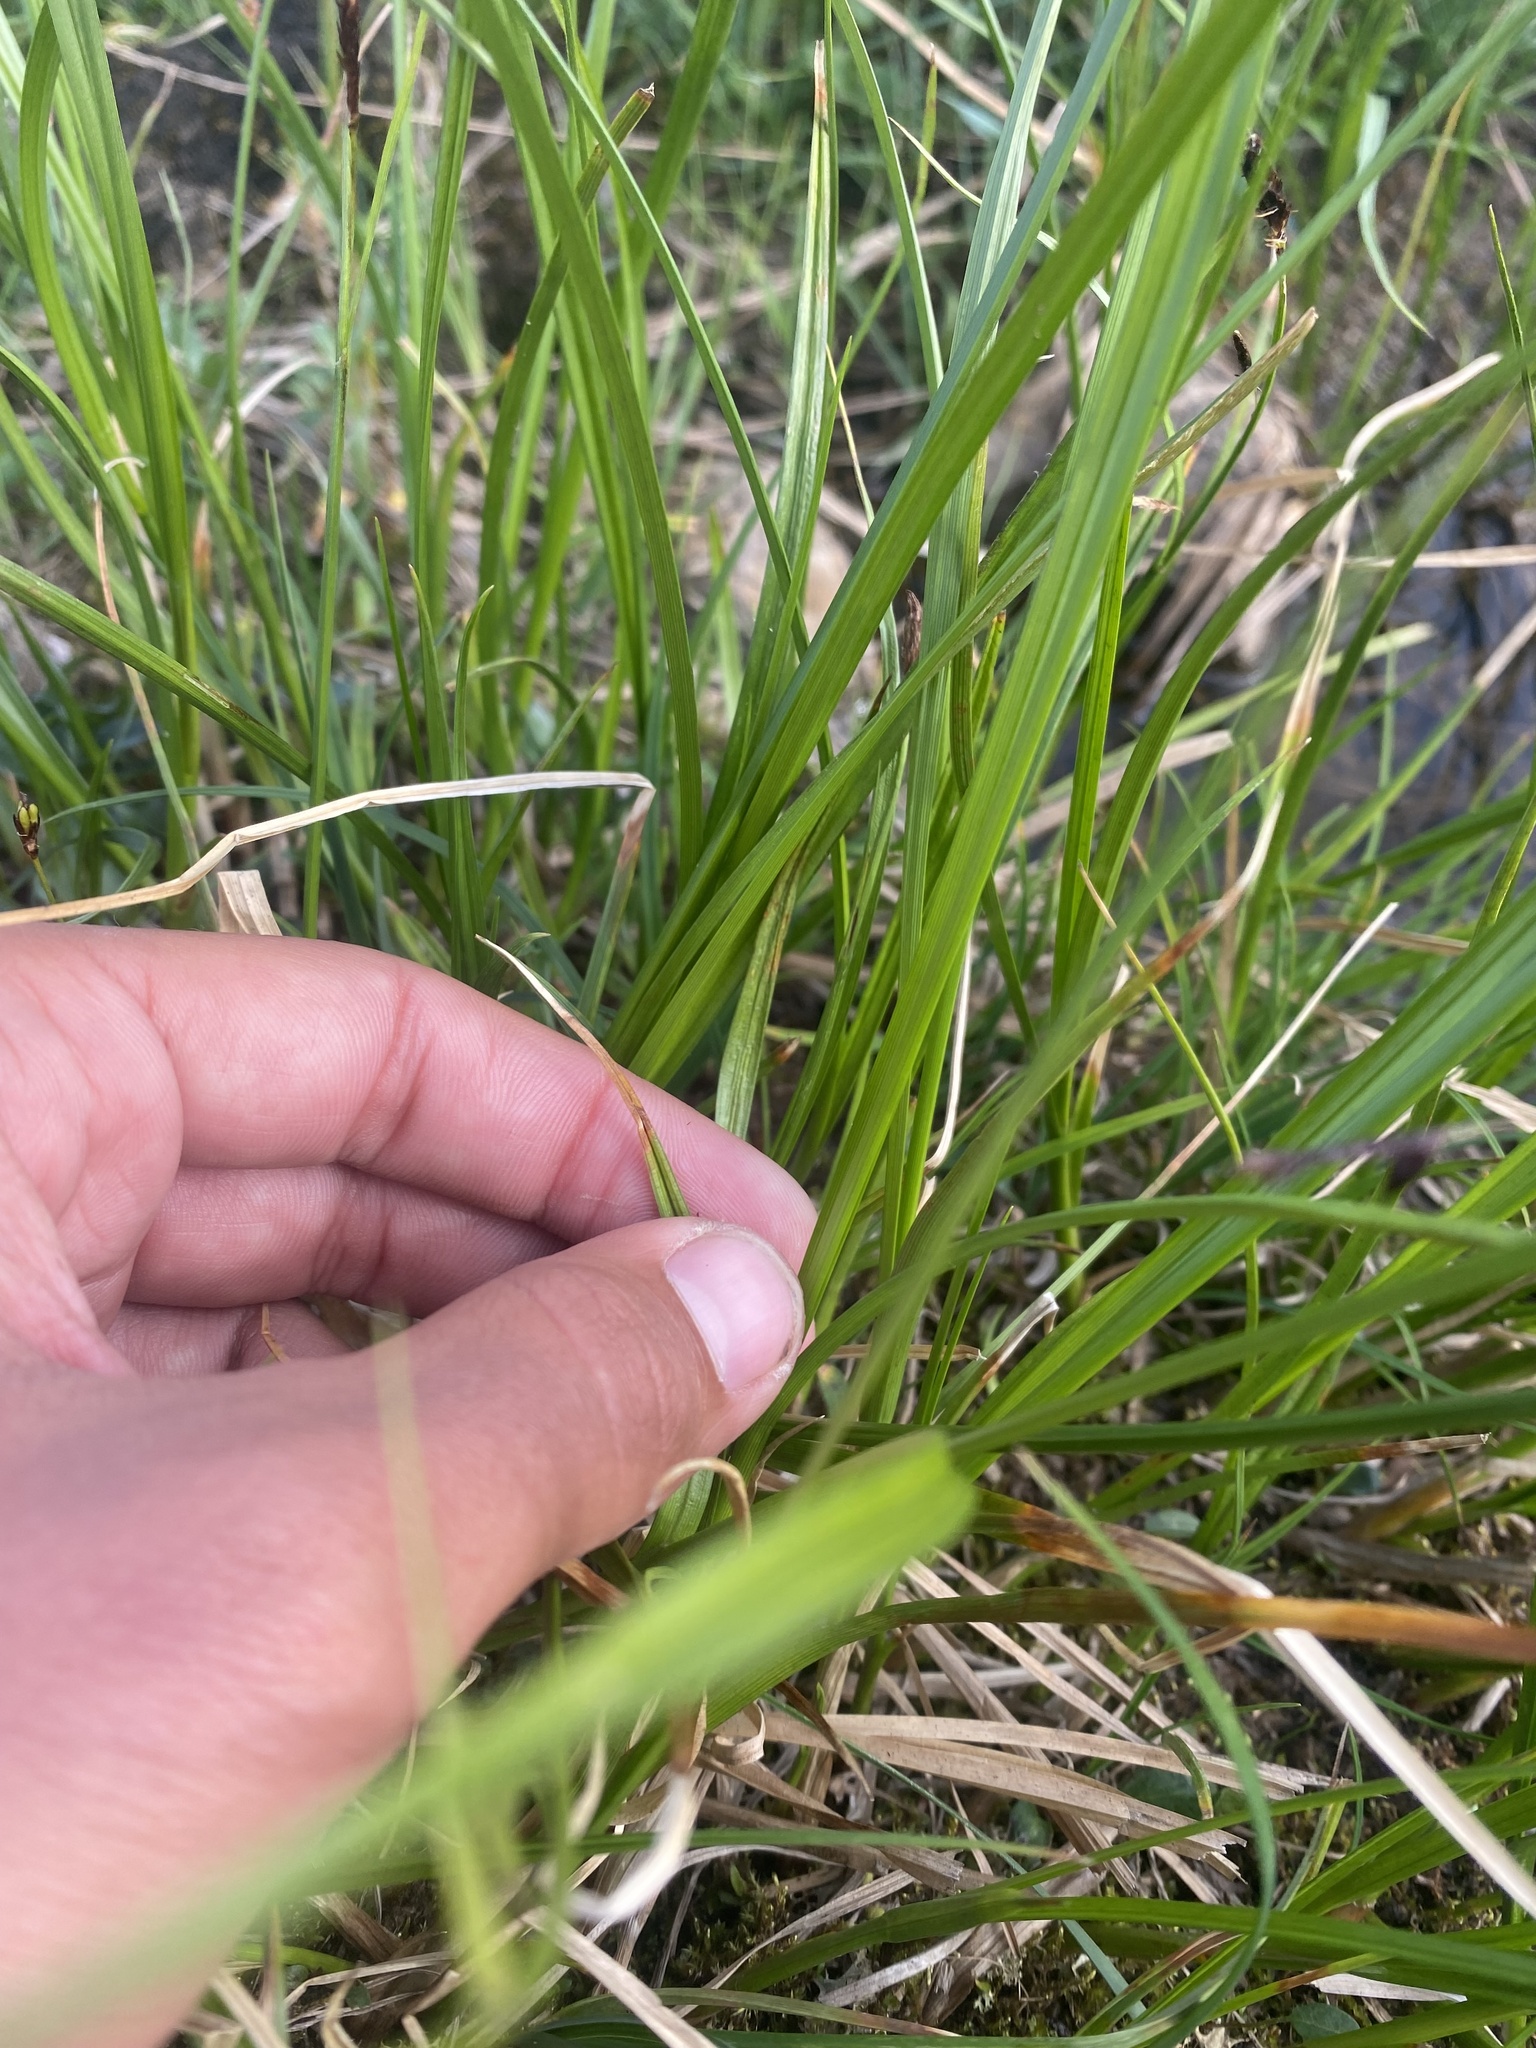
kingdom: Plantae
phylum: Tracheophyta
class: Liliopsida
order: Poales
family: Cyperaceae
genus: Carex
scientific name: Carex saxatilis
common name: Russet sedge
